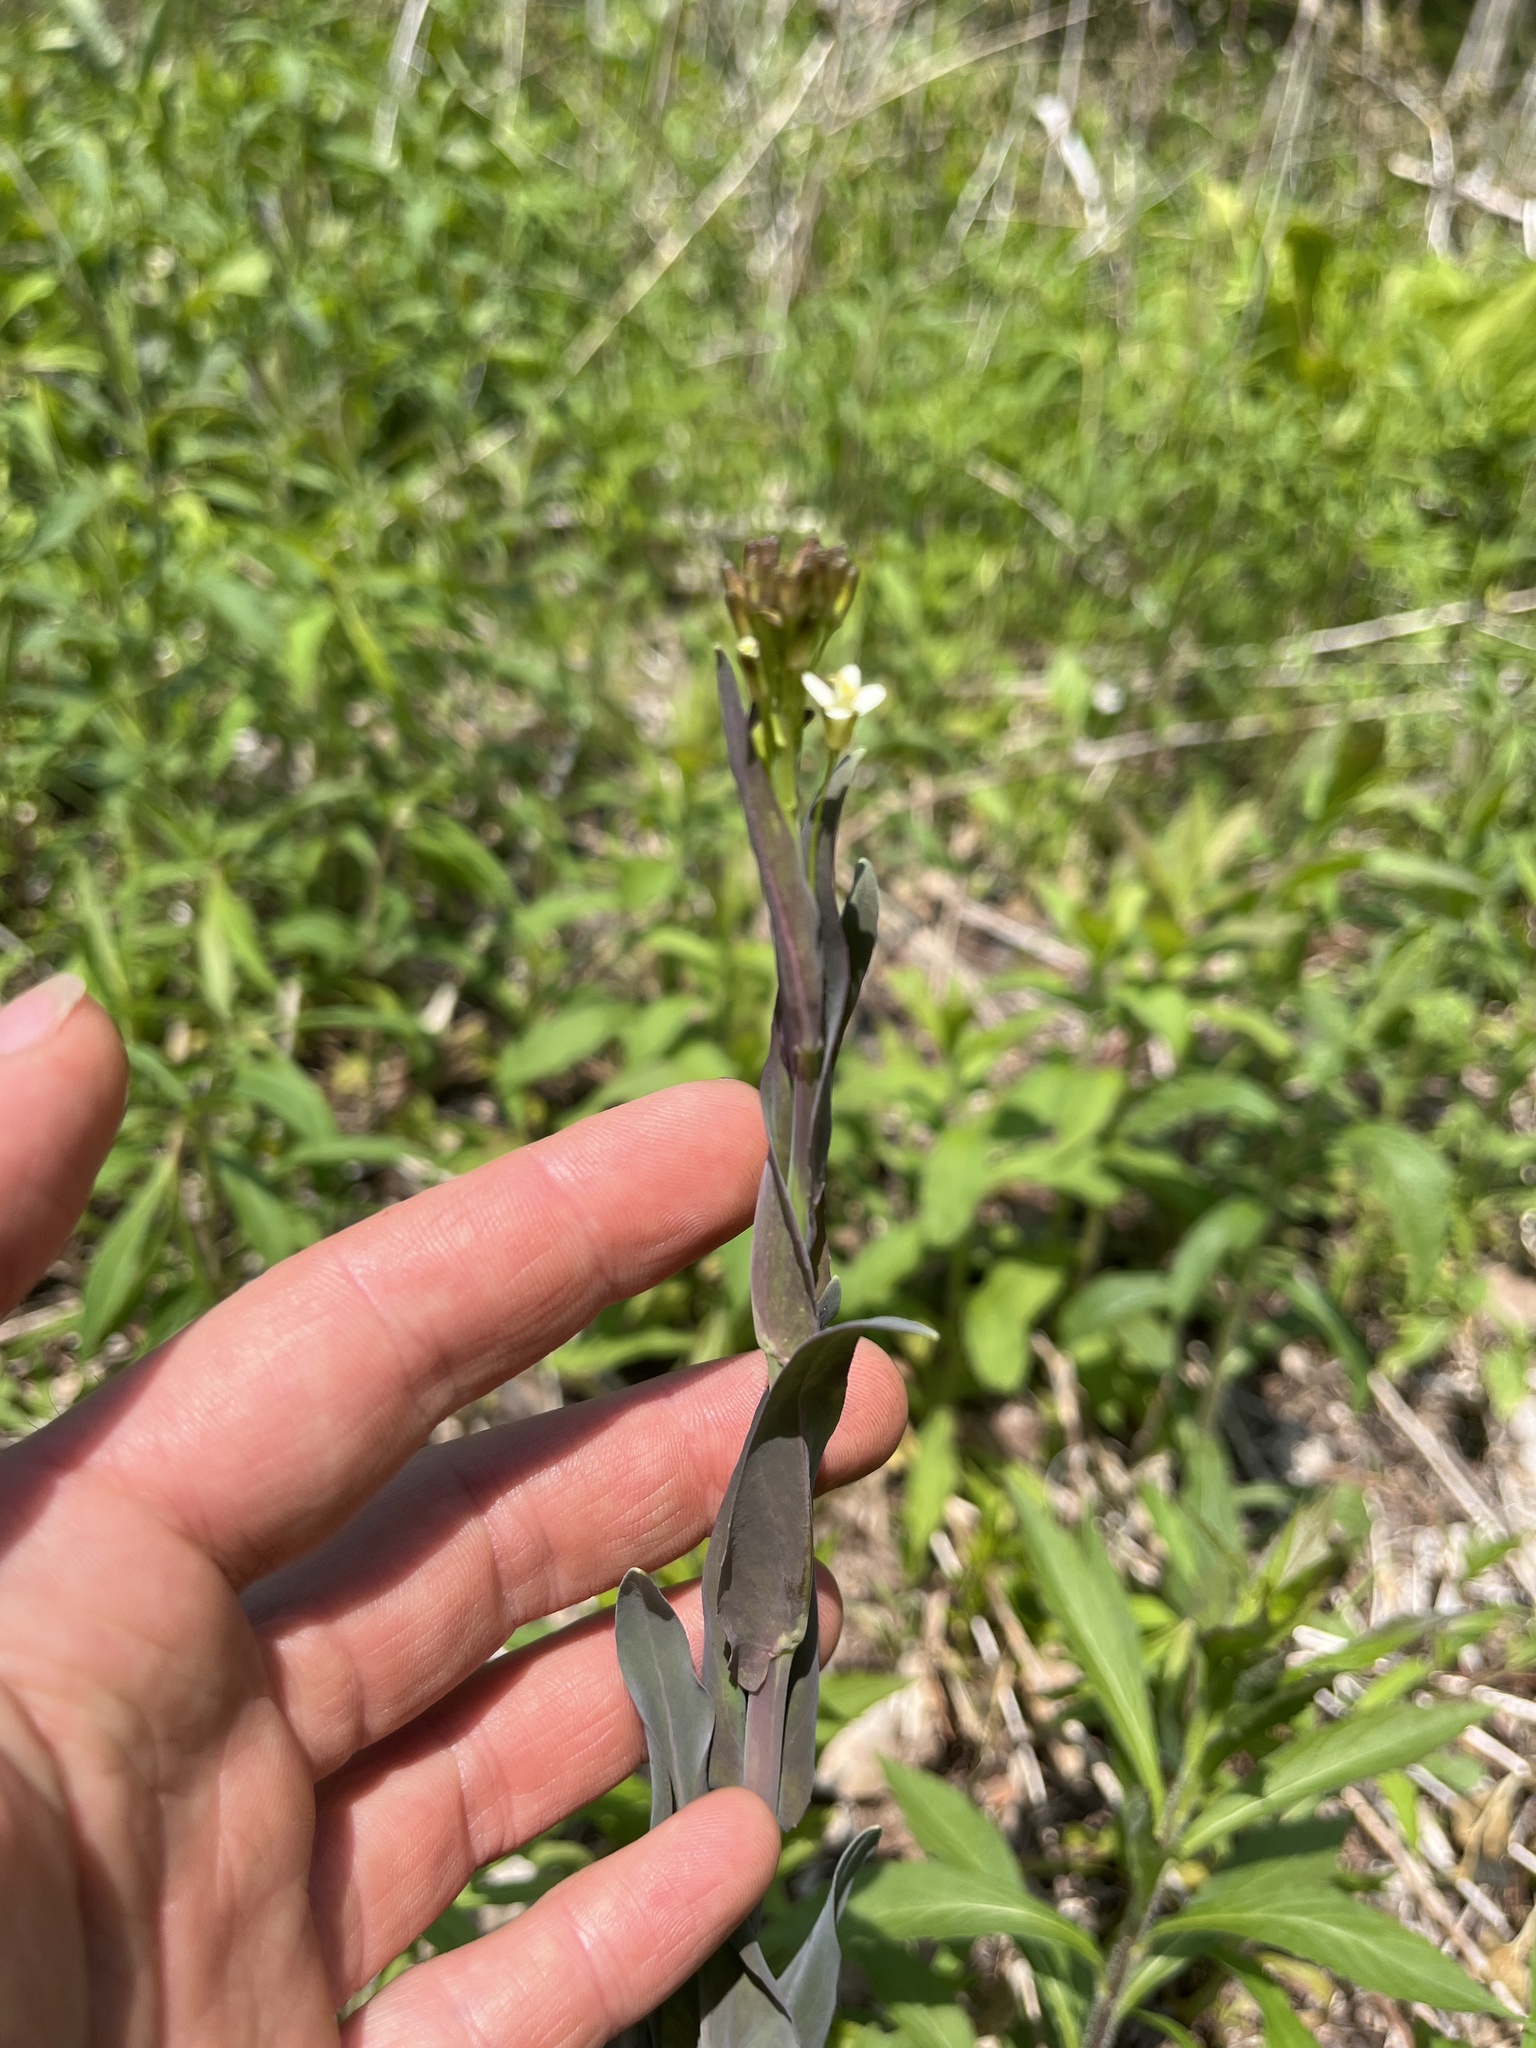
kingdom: Plantae
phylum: Tracheophyta
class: Magnoliopsida
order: Brassicales
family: Brassicaceae
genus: Turritis
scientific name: Turritis glabra
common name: Tower rockcress
